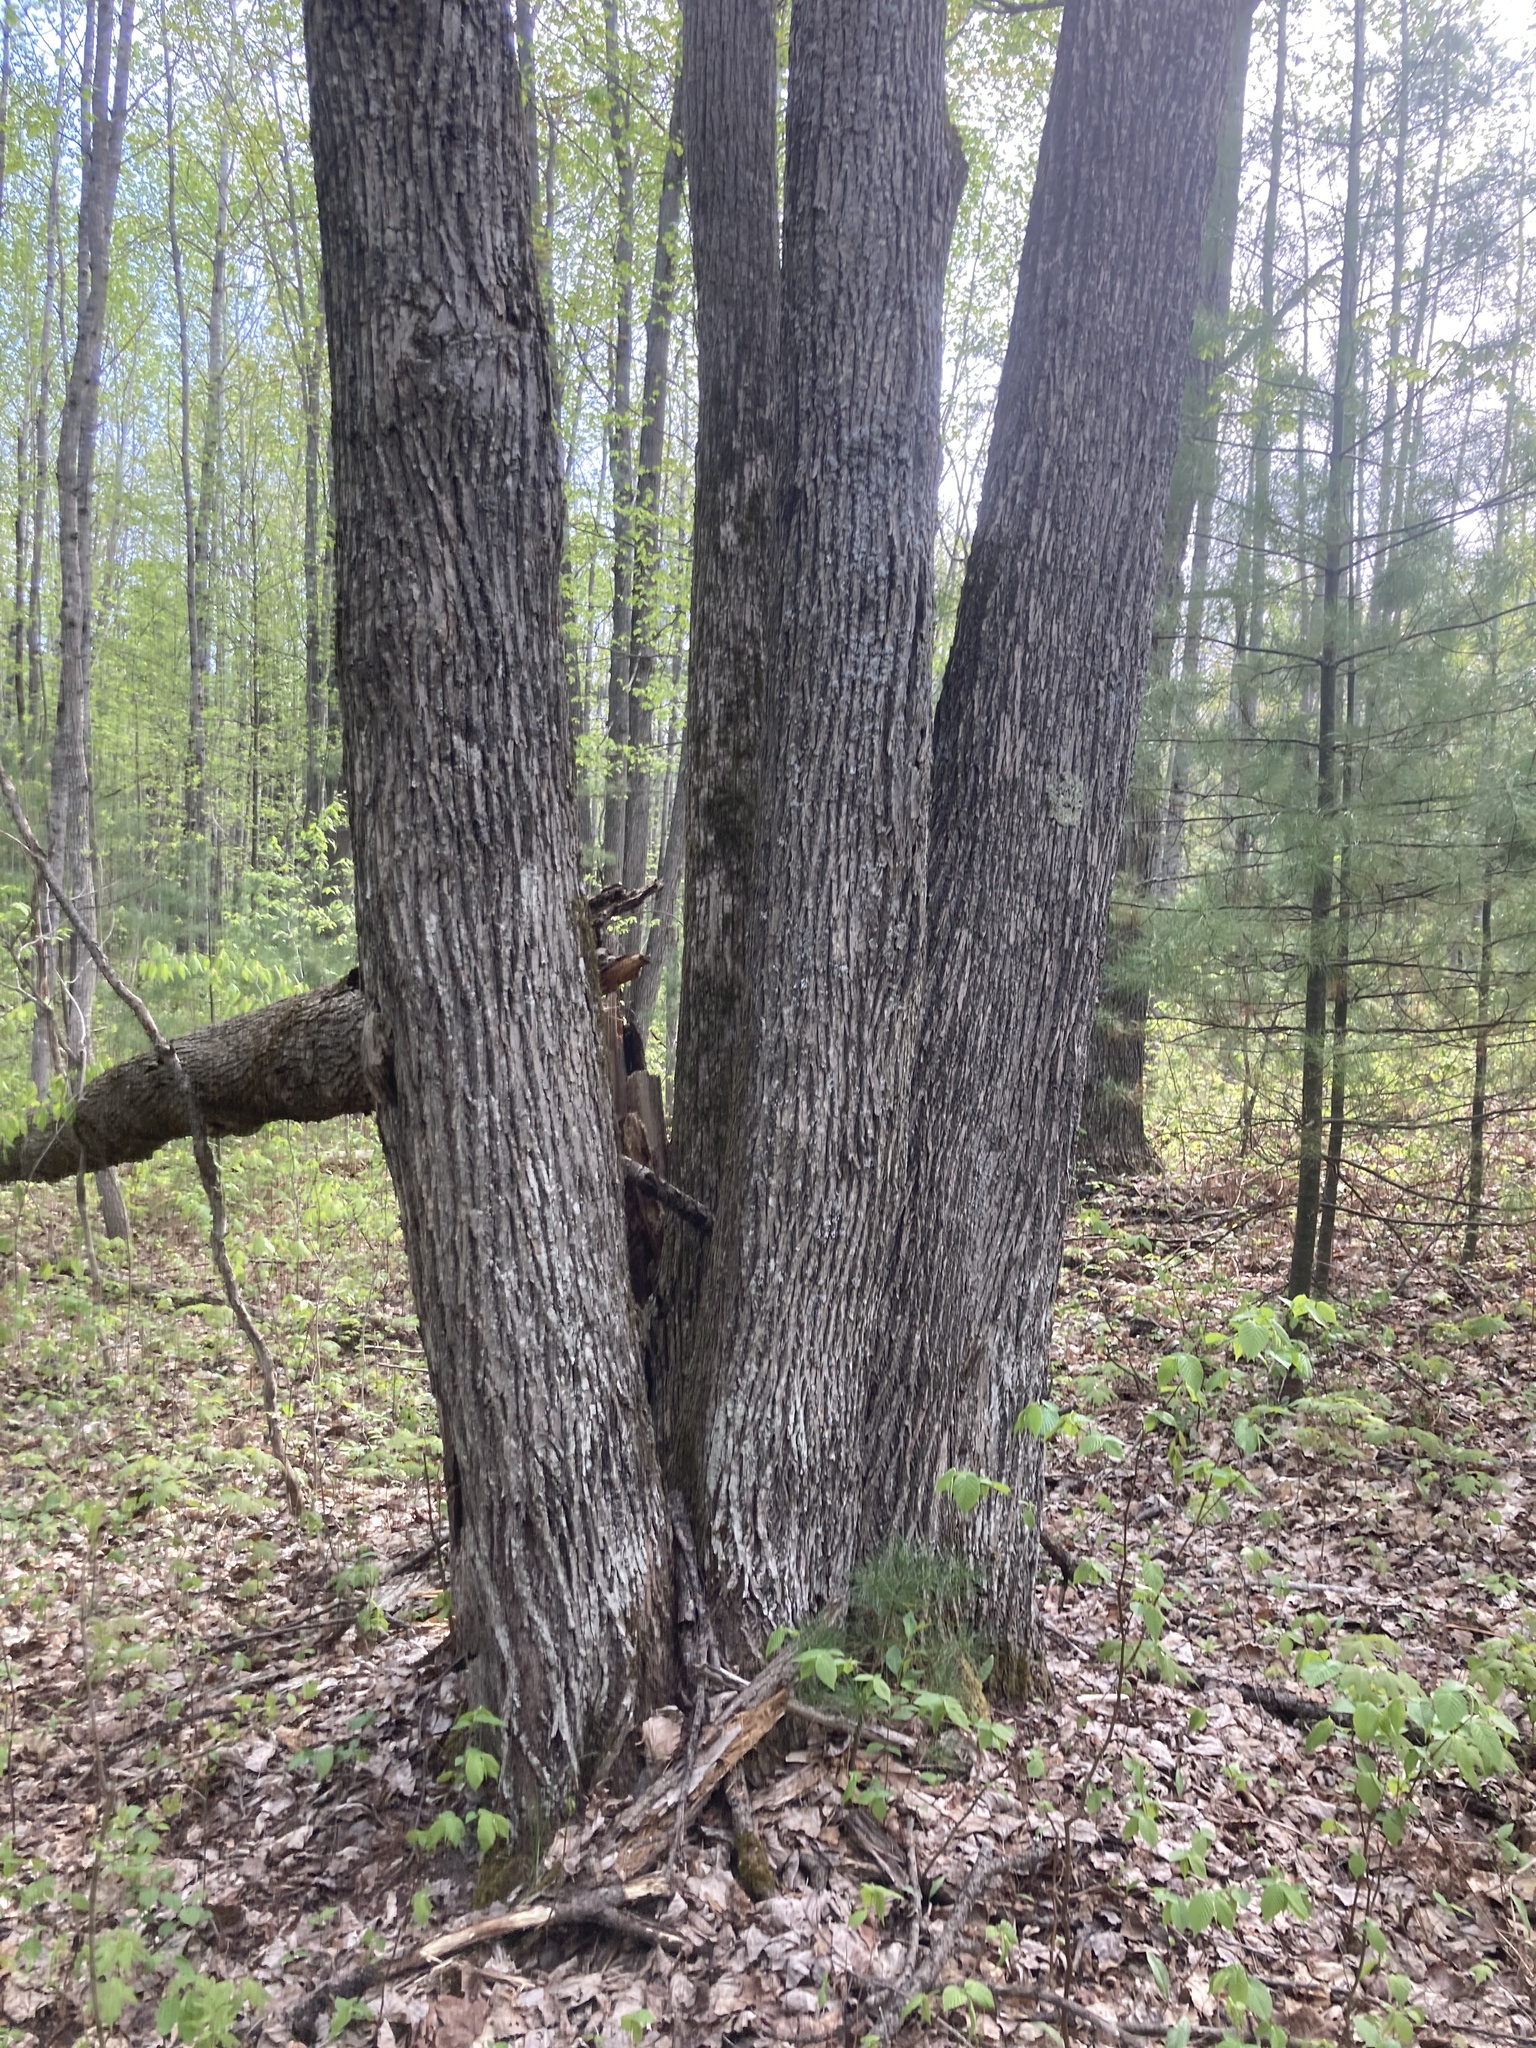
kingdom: Plantae
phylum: Tracheophyta
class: Magnoliopsida
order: Malvales
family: Malvaceae
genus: Tilia
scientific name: Tilia americana
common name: Basswood
